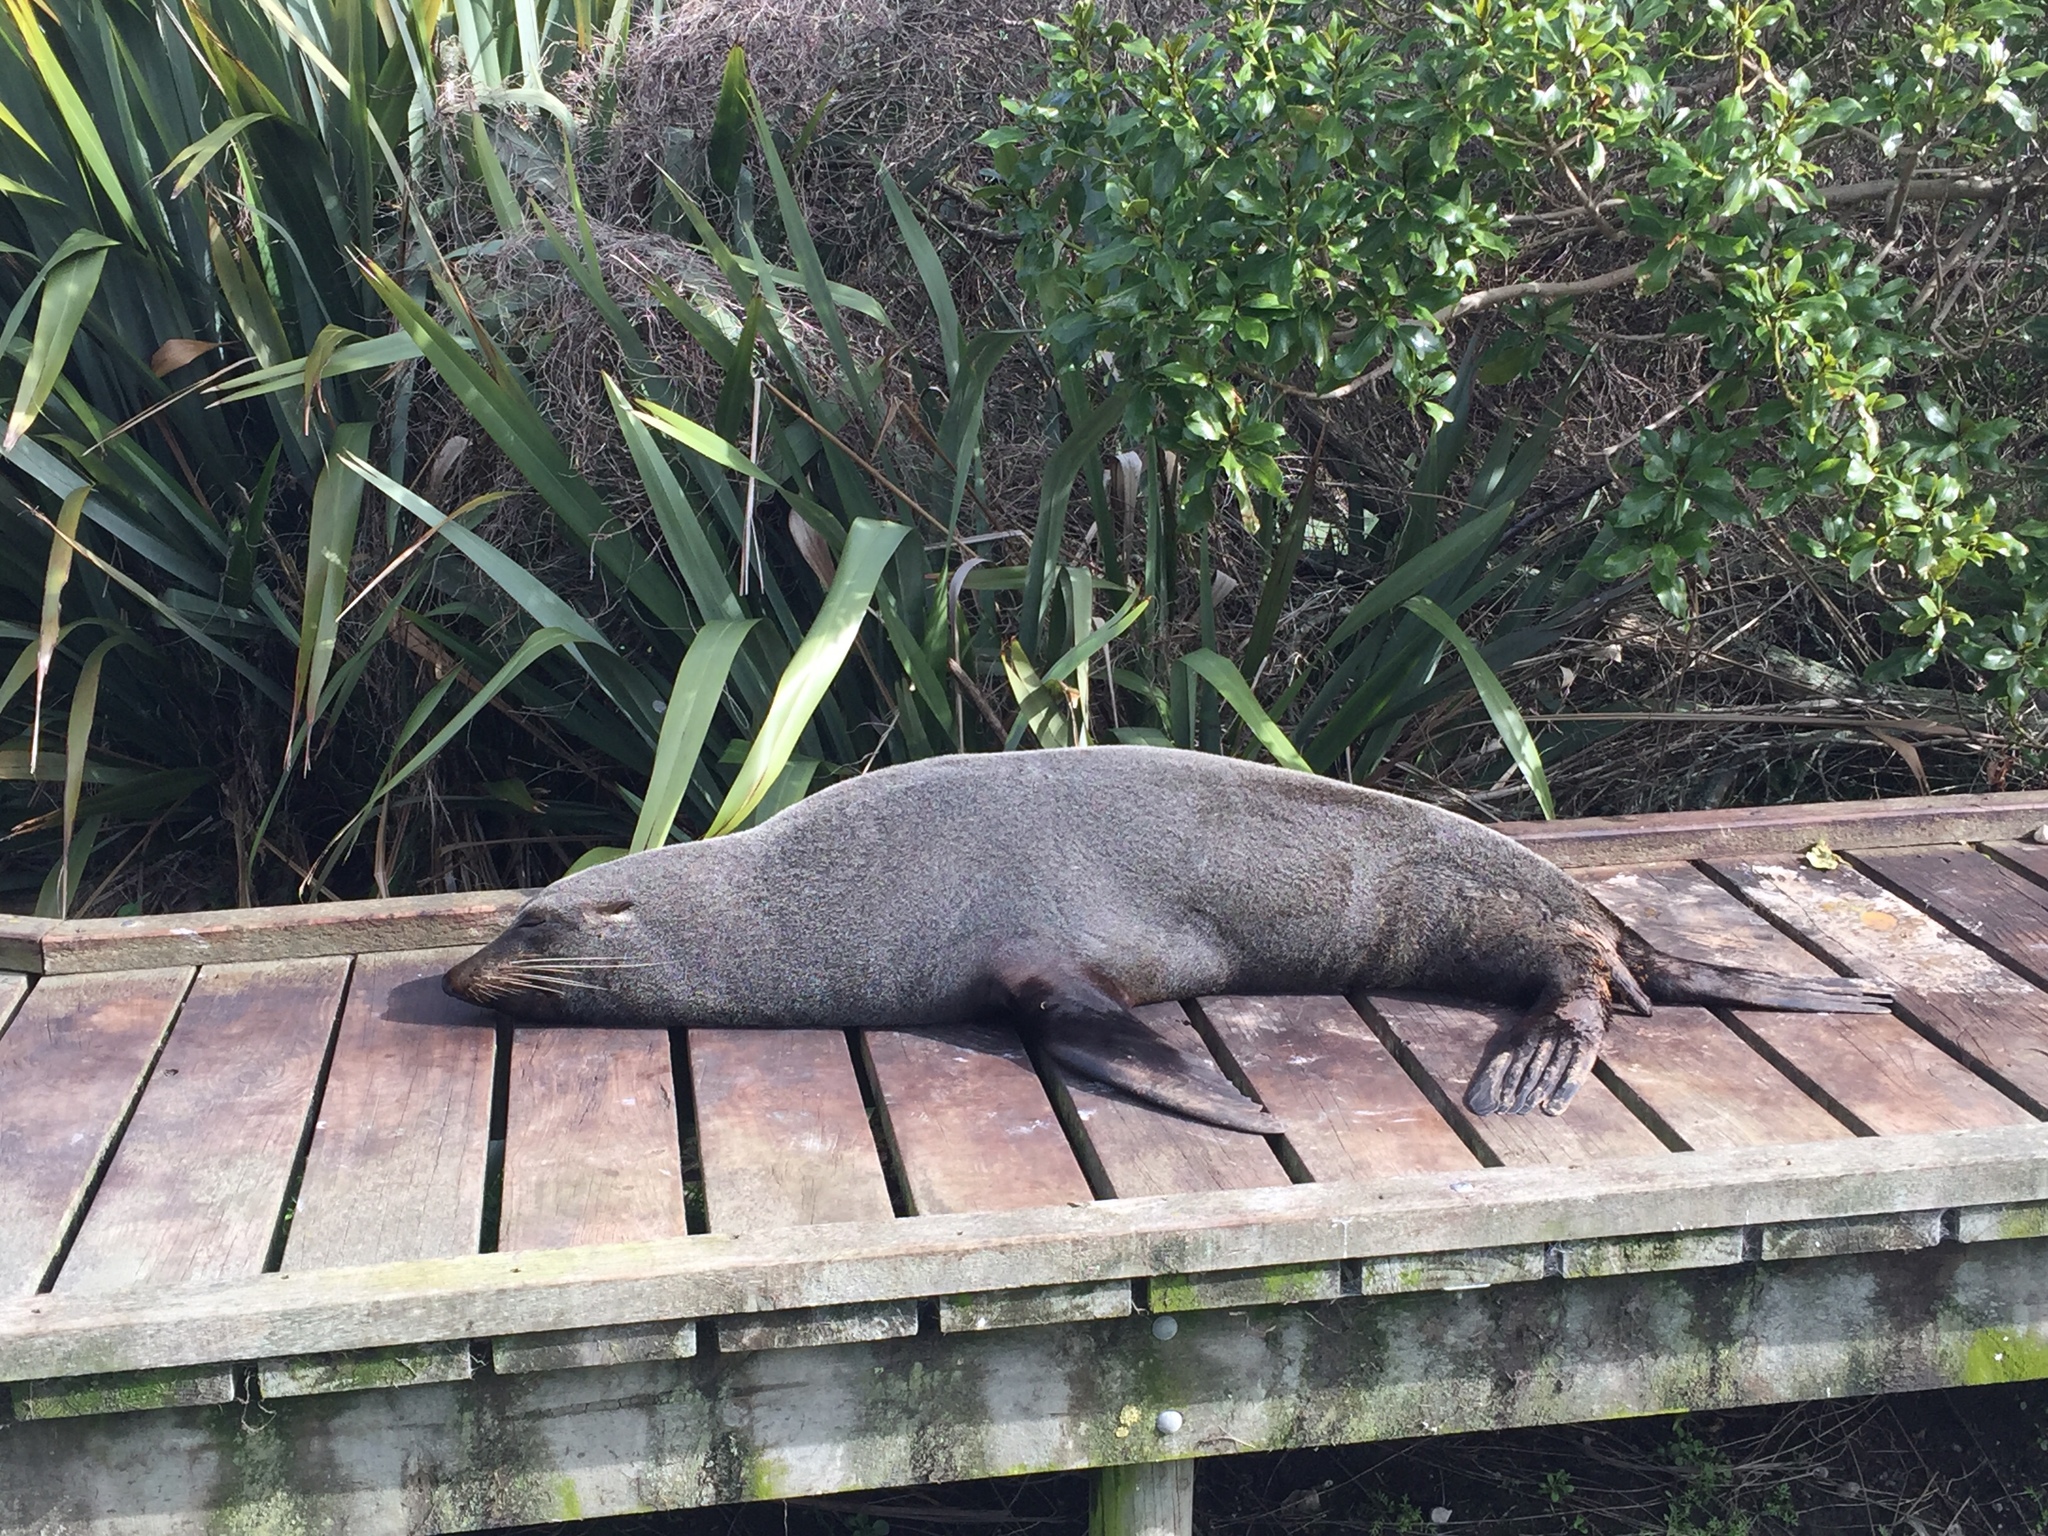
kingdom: Animalia
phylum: Chordata
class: Mammalia
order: Carnivora
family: Otariidae
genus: Arctocephalus
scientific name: Arctocephalus forsteri
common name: New zealand fur seal
